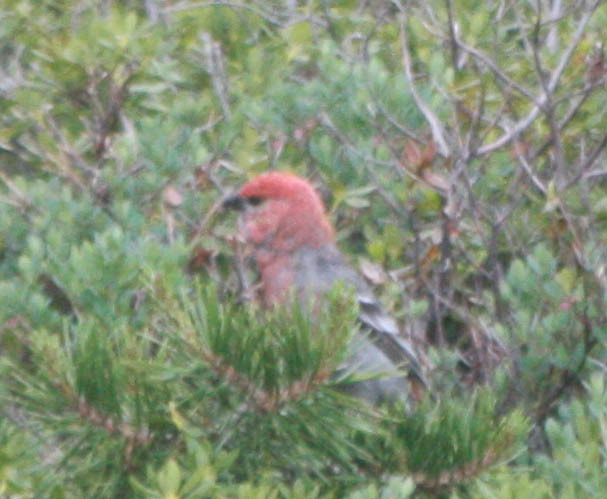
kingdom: Animalia
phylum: Chordata
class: Aves
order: Passeriformes
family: Fringillidae
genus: Pinicola
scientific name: Pinicola enucleator
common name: Pine grosbeak
